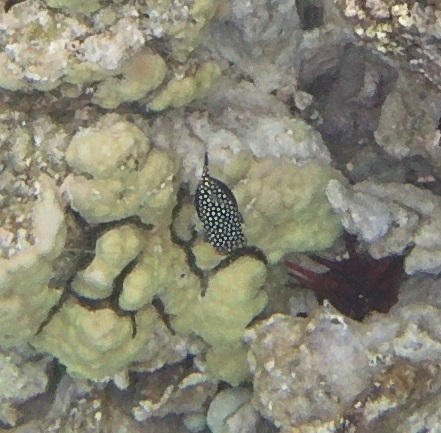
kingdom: Animalia
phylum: Chordata
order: Tetraodontiformes
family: Ostraciidae
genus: Ostracion
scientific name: Ostracion meleagris
